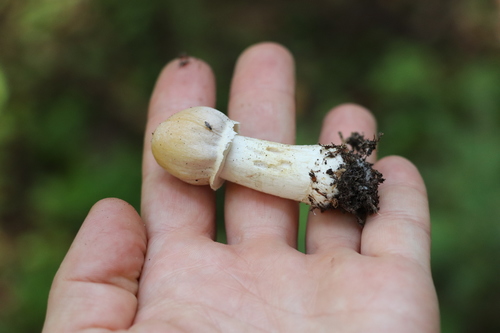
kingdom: Fungi
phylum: Basidiomycota
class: Agaricomycetes
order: Agaricales
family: Cortinariaceae
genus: Cortinarius
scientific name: Cortinarius caperatus
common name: The gypsy
